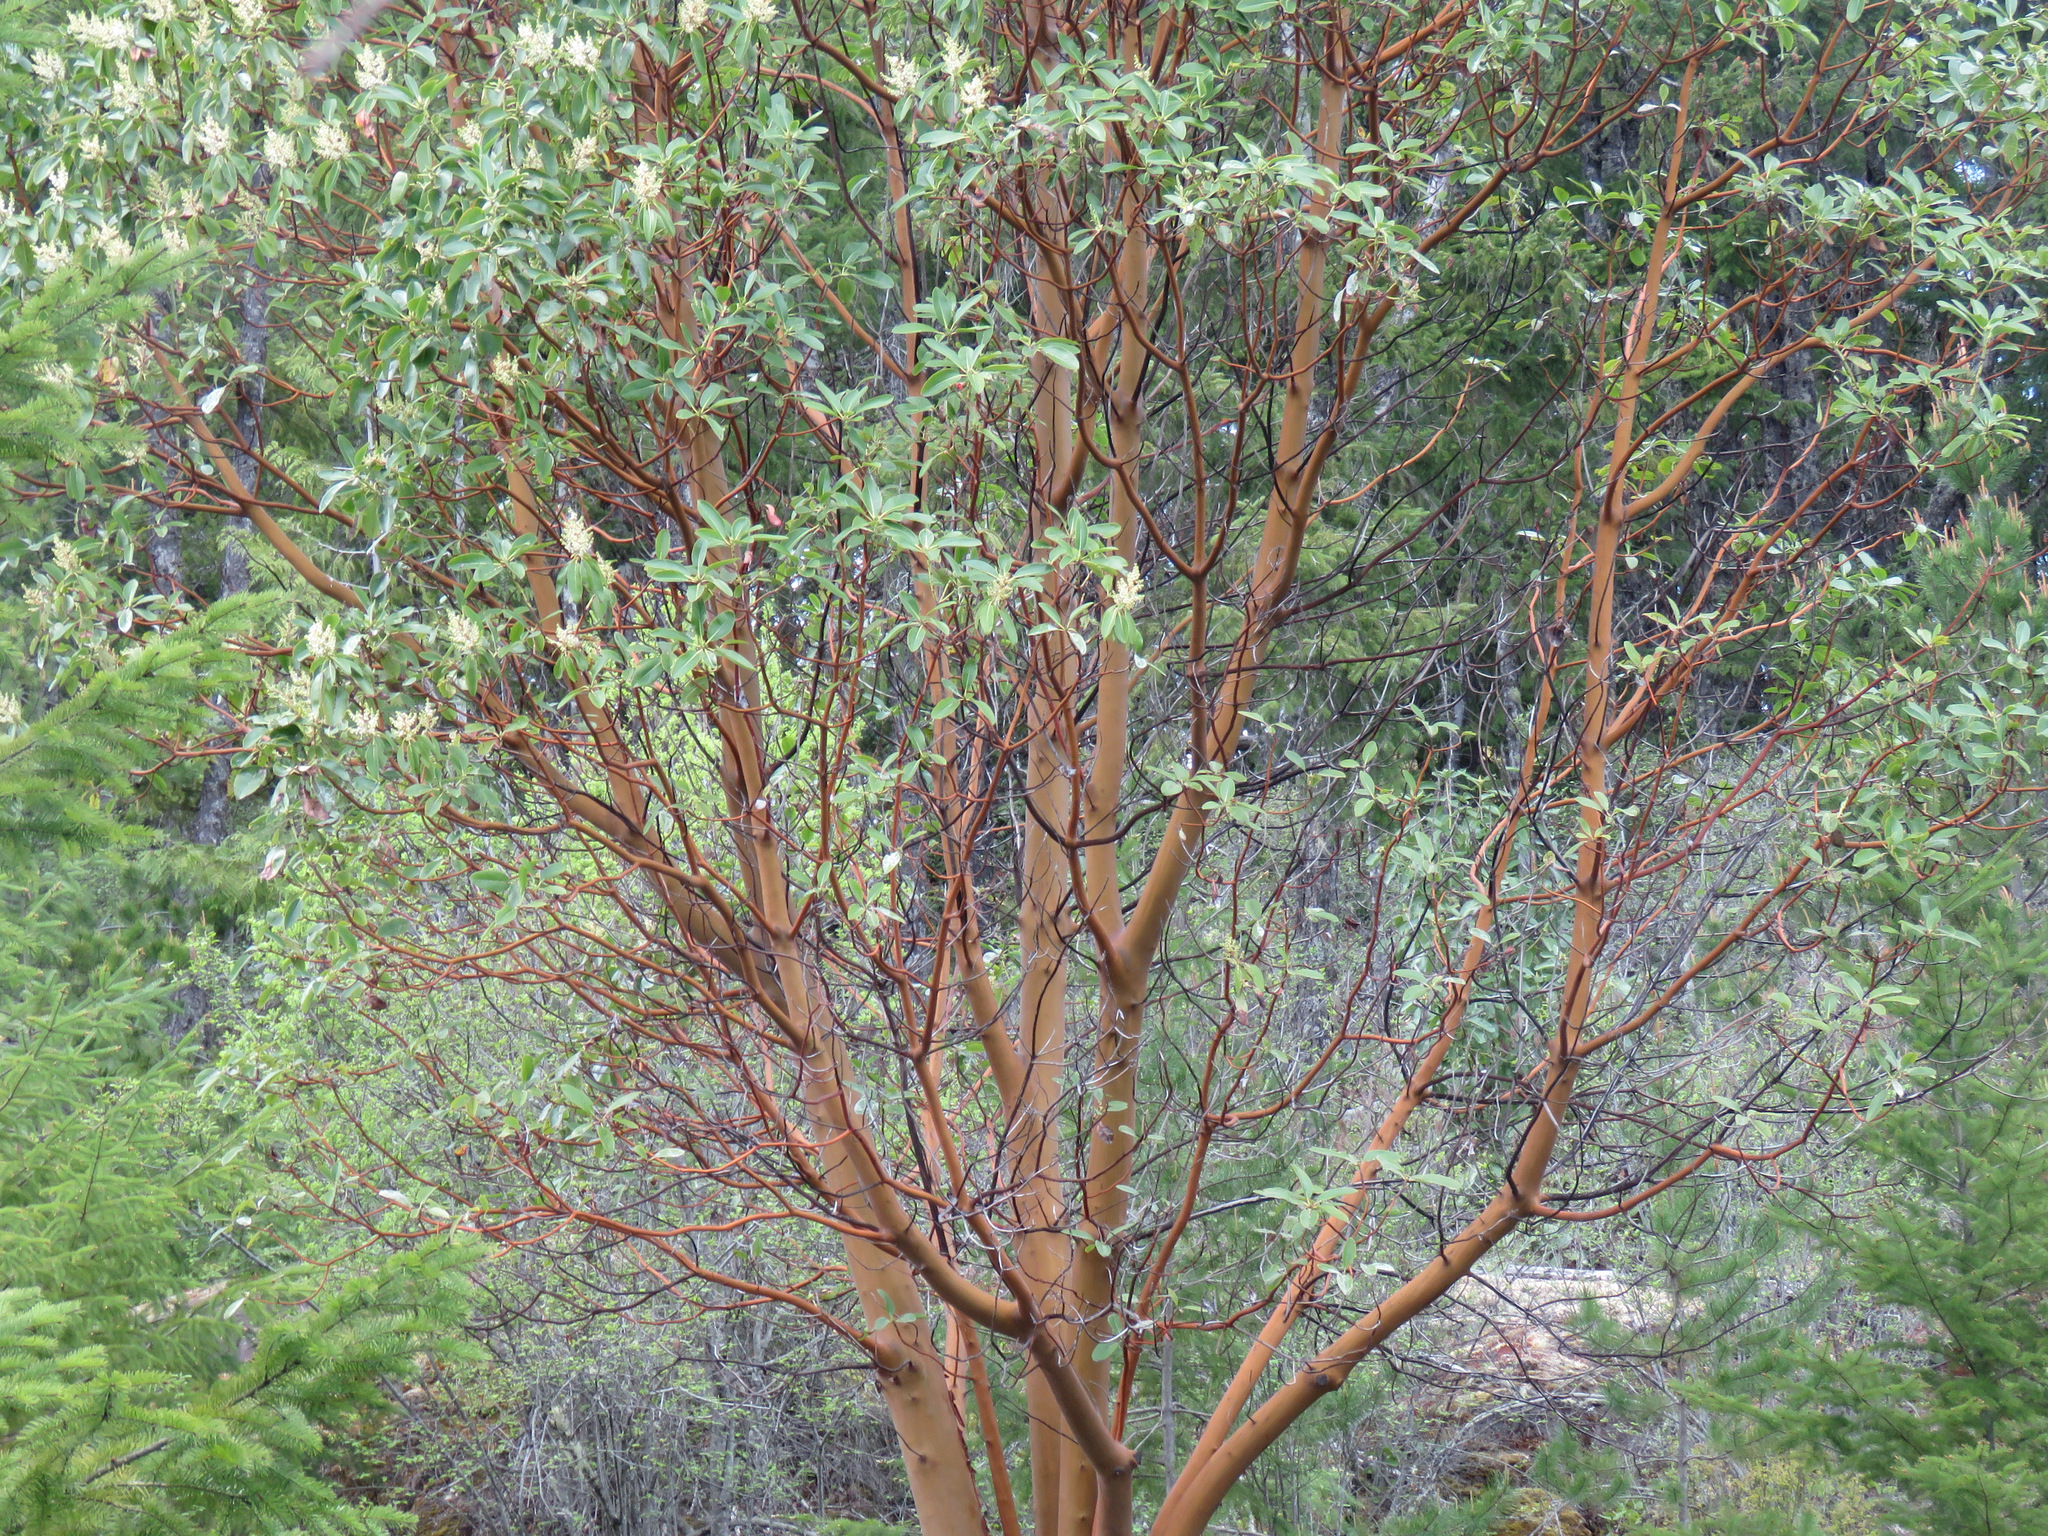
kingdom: Plantae
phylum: Tracheophyta
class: Magnoliopsida
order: Ericales
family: Ericaceae
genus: Arbutus
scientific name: Arbutus menziesii
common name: Pacific madrone
